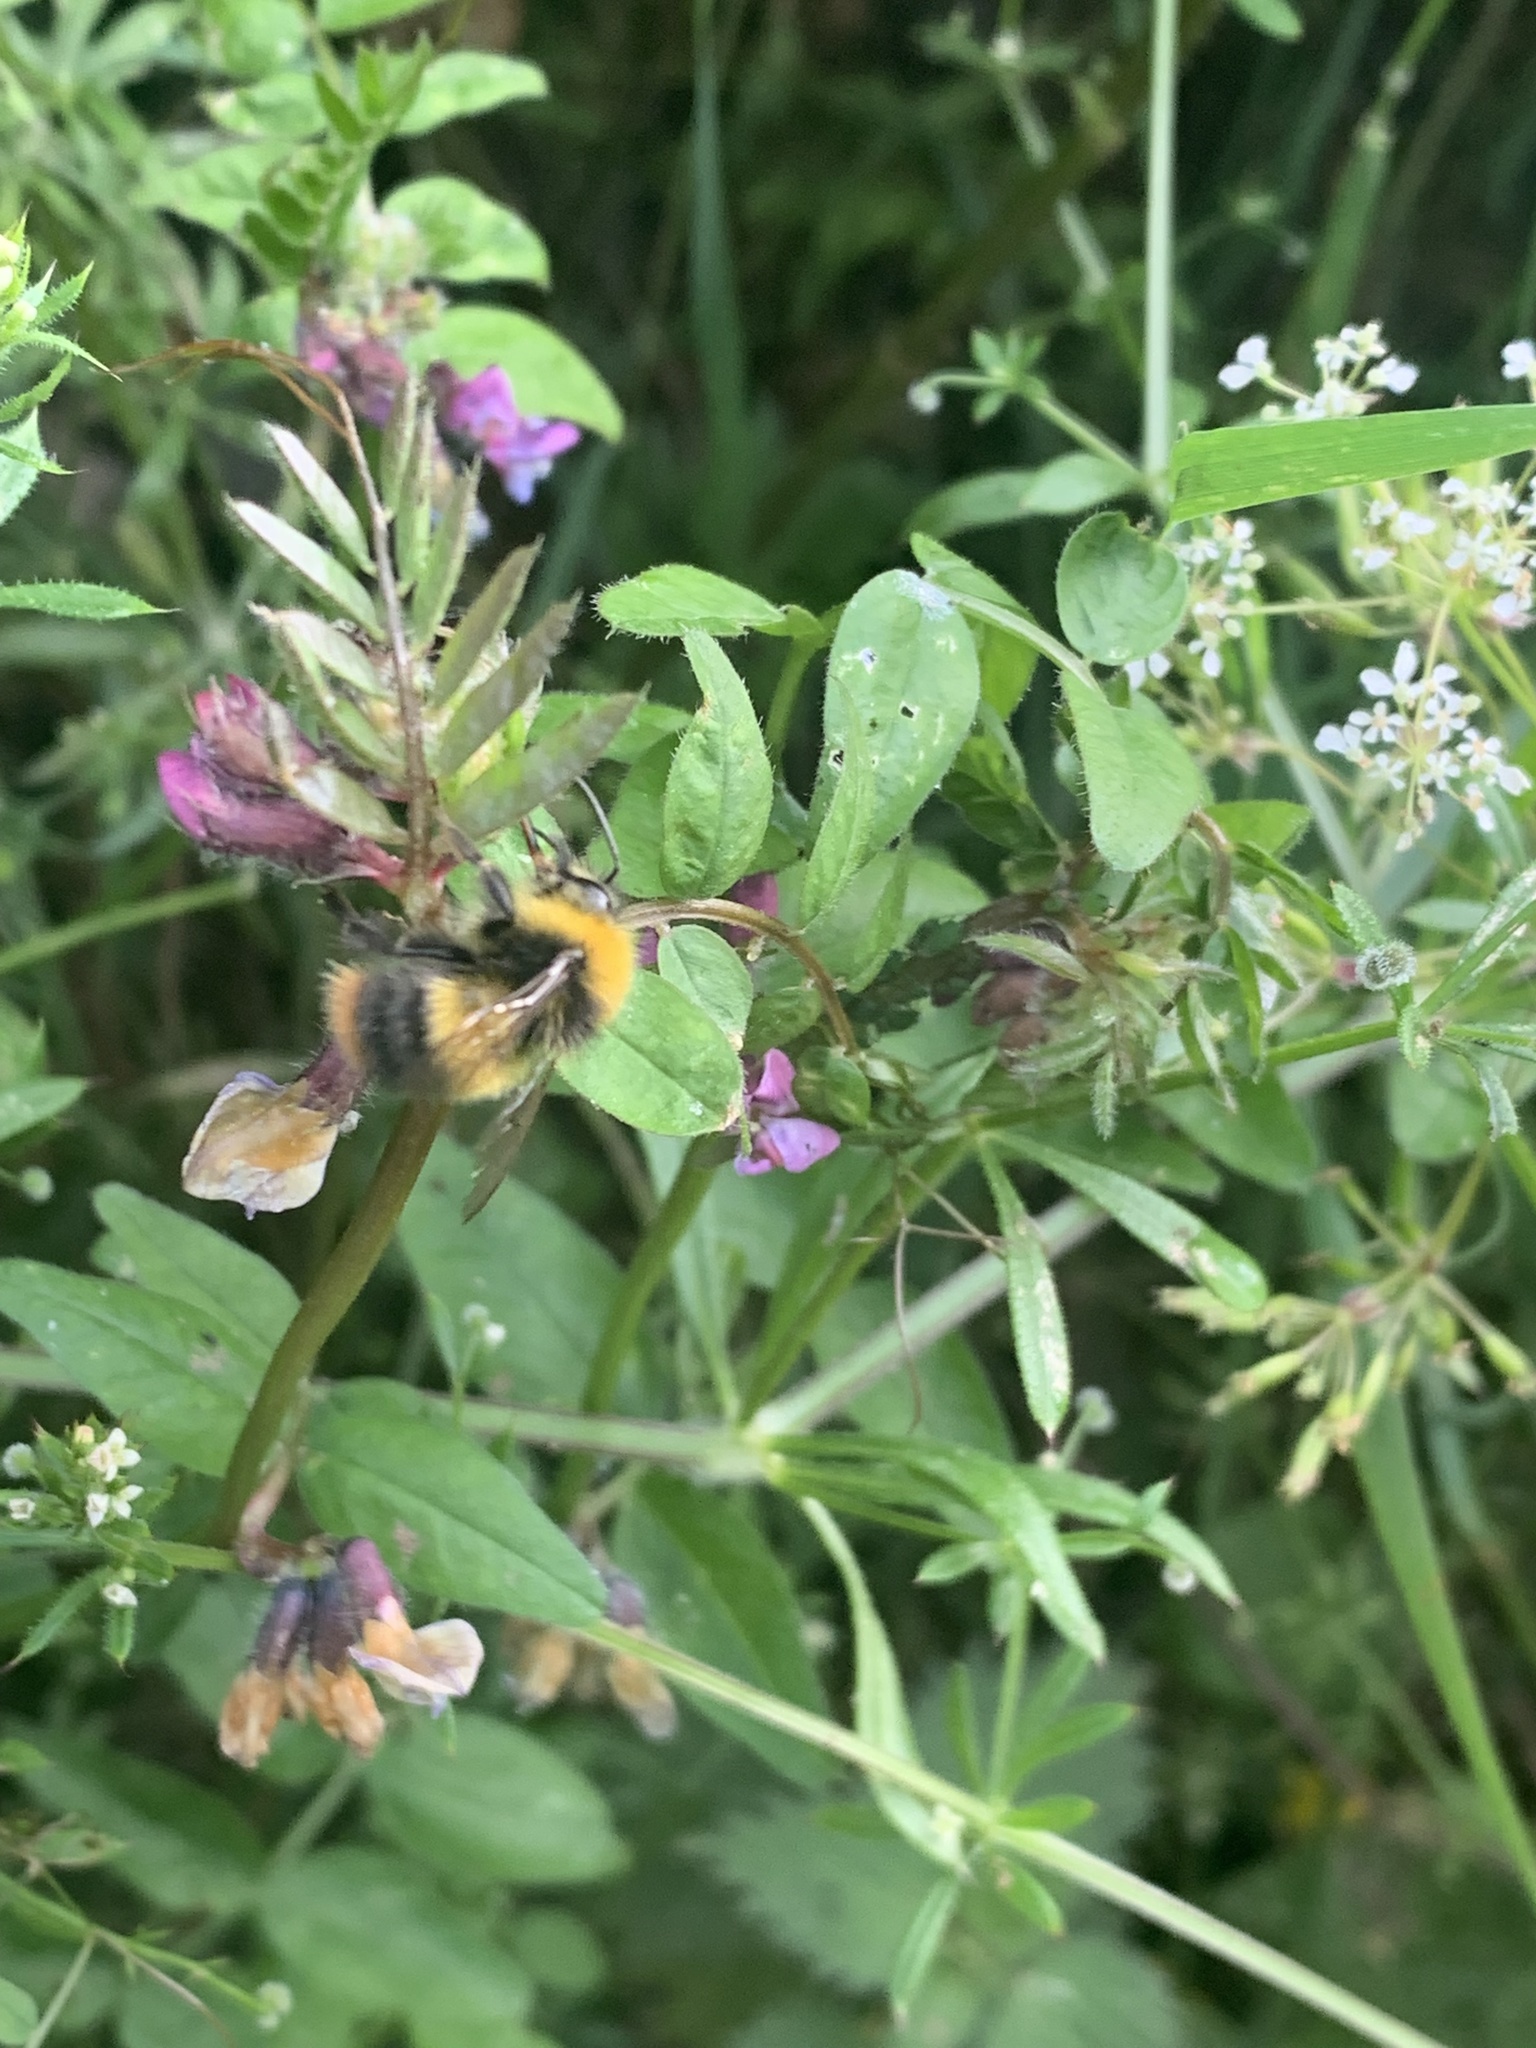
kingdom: Animalia
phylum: Arthropoda
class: Insecta
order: Hymenoptera
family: Apidae
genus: Bombus
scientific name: Bombus pratorum
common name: Early humble-bee
